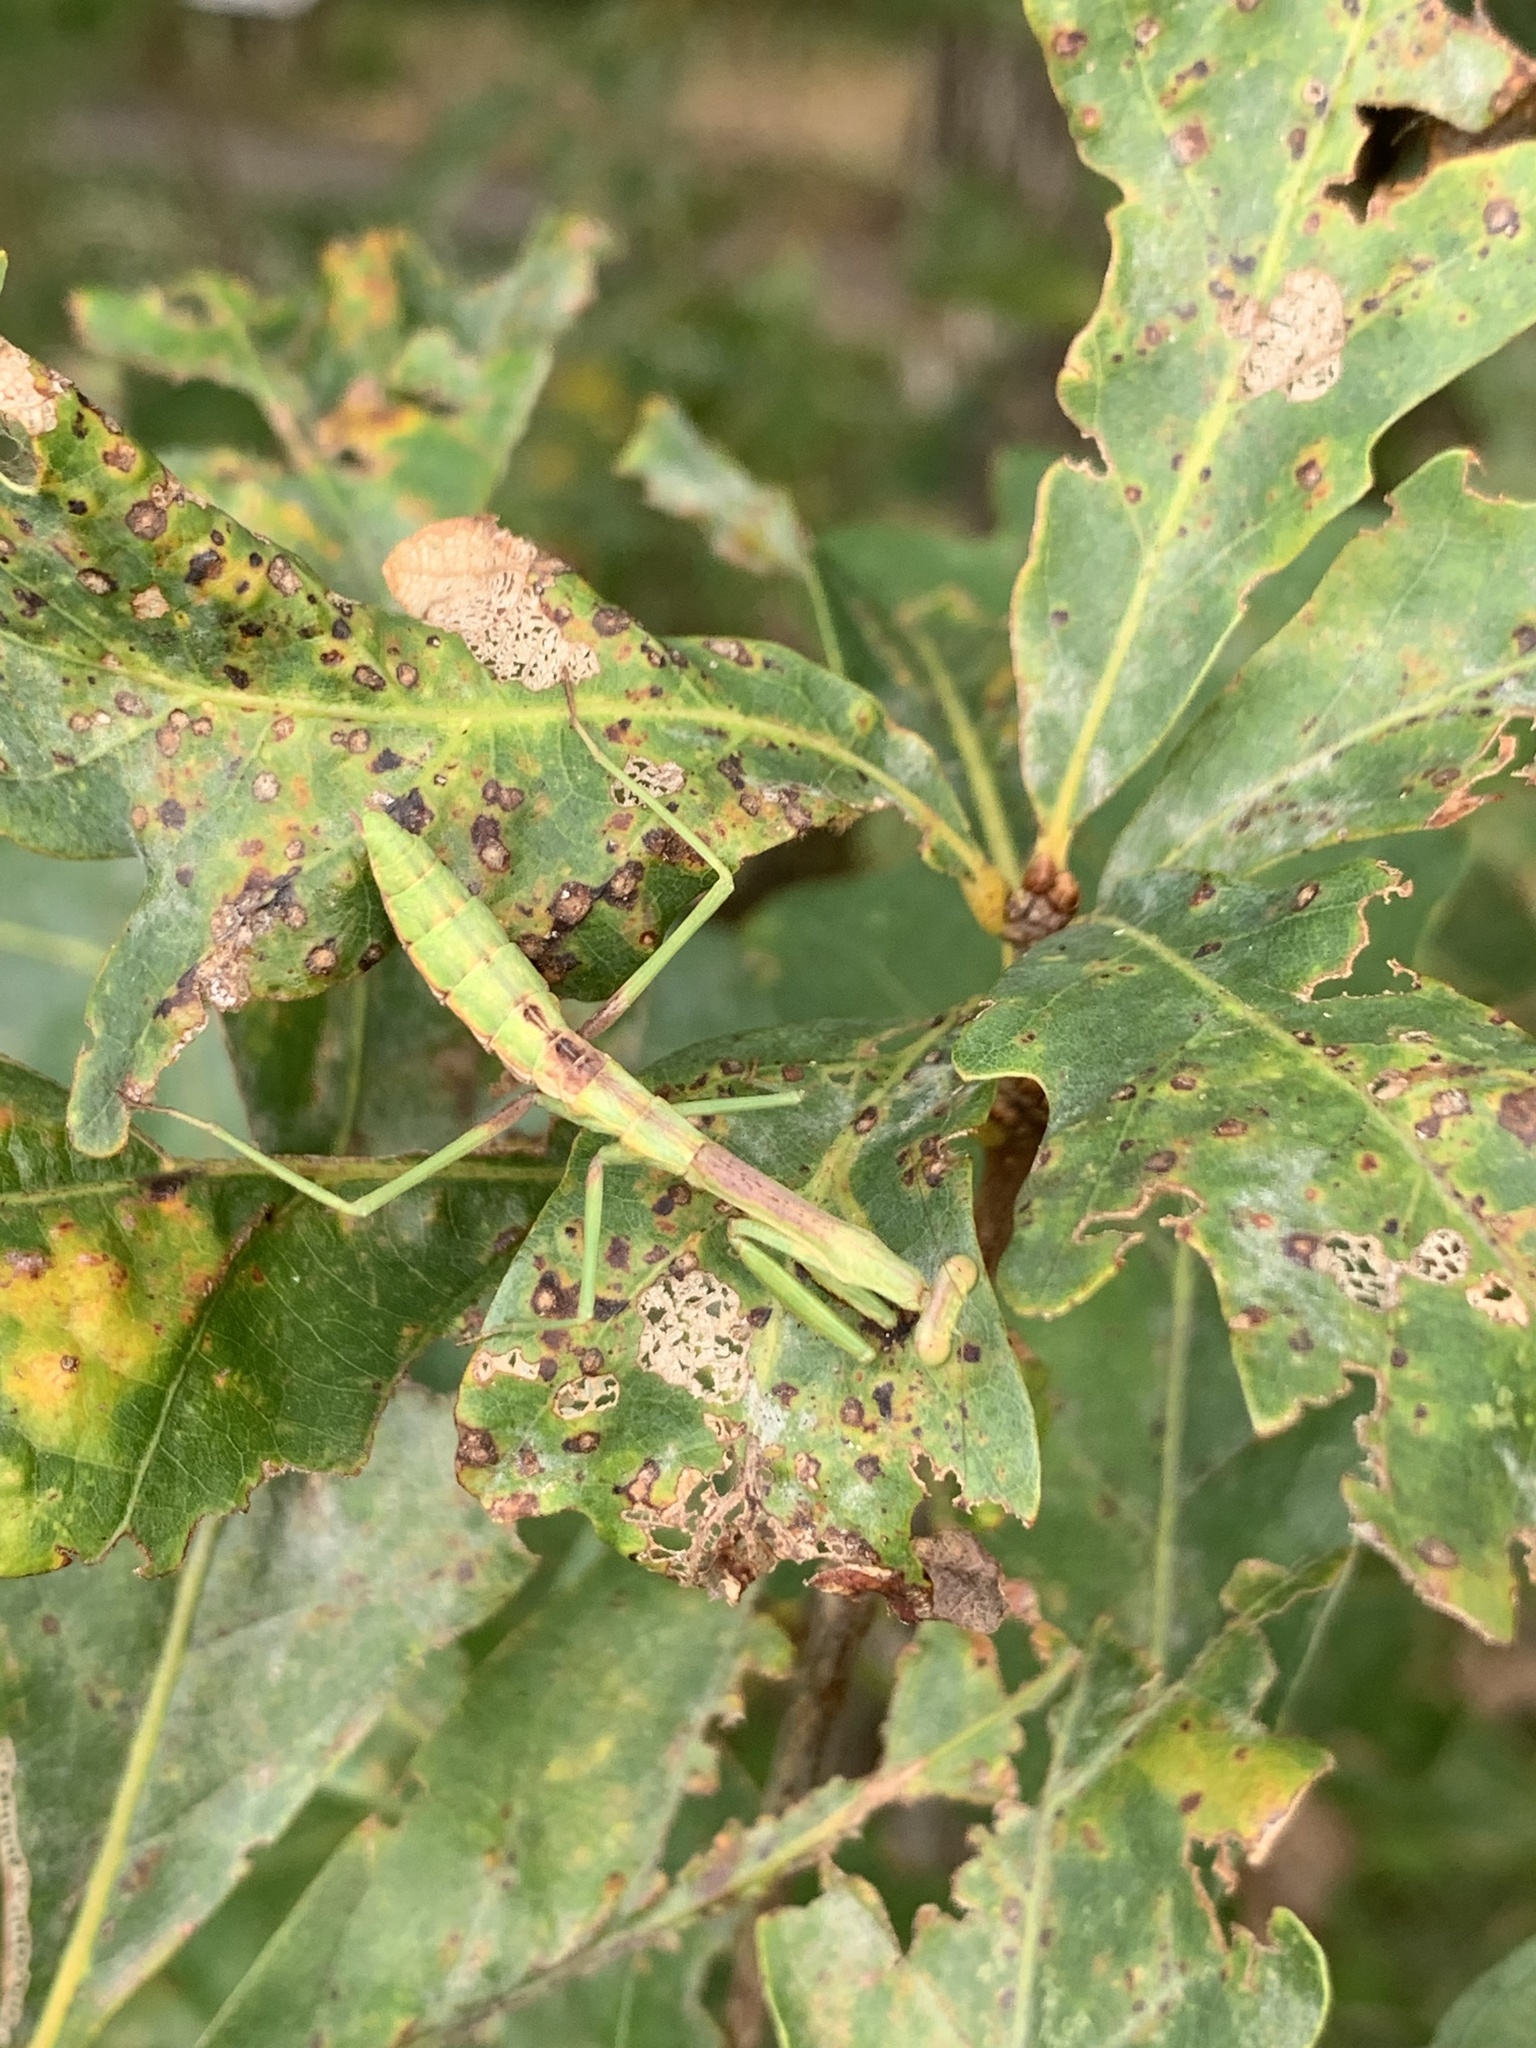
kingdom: Animalia
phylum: Arthropoda
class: Insecta
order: Mantodea
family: Mantidae
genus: Stagmomantis
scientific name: Stagmomantis carolina
